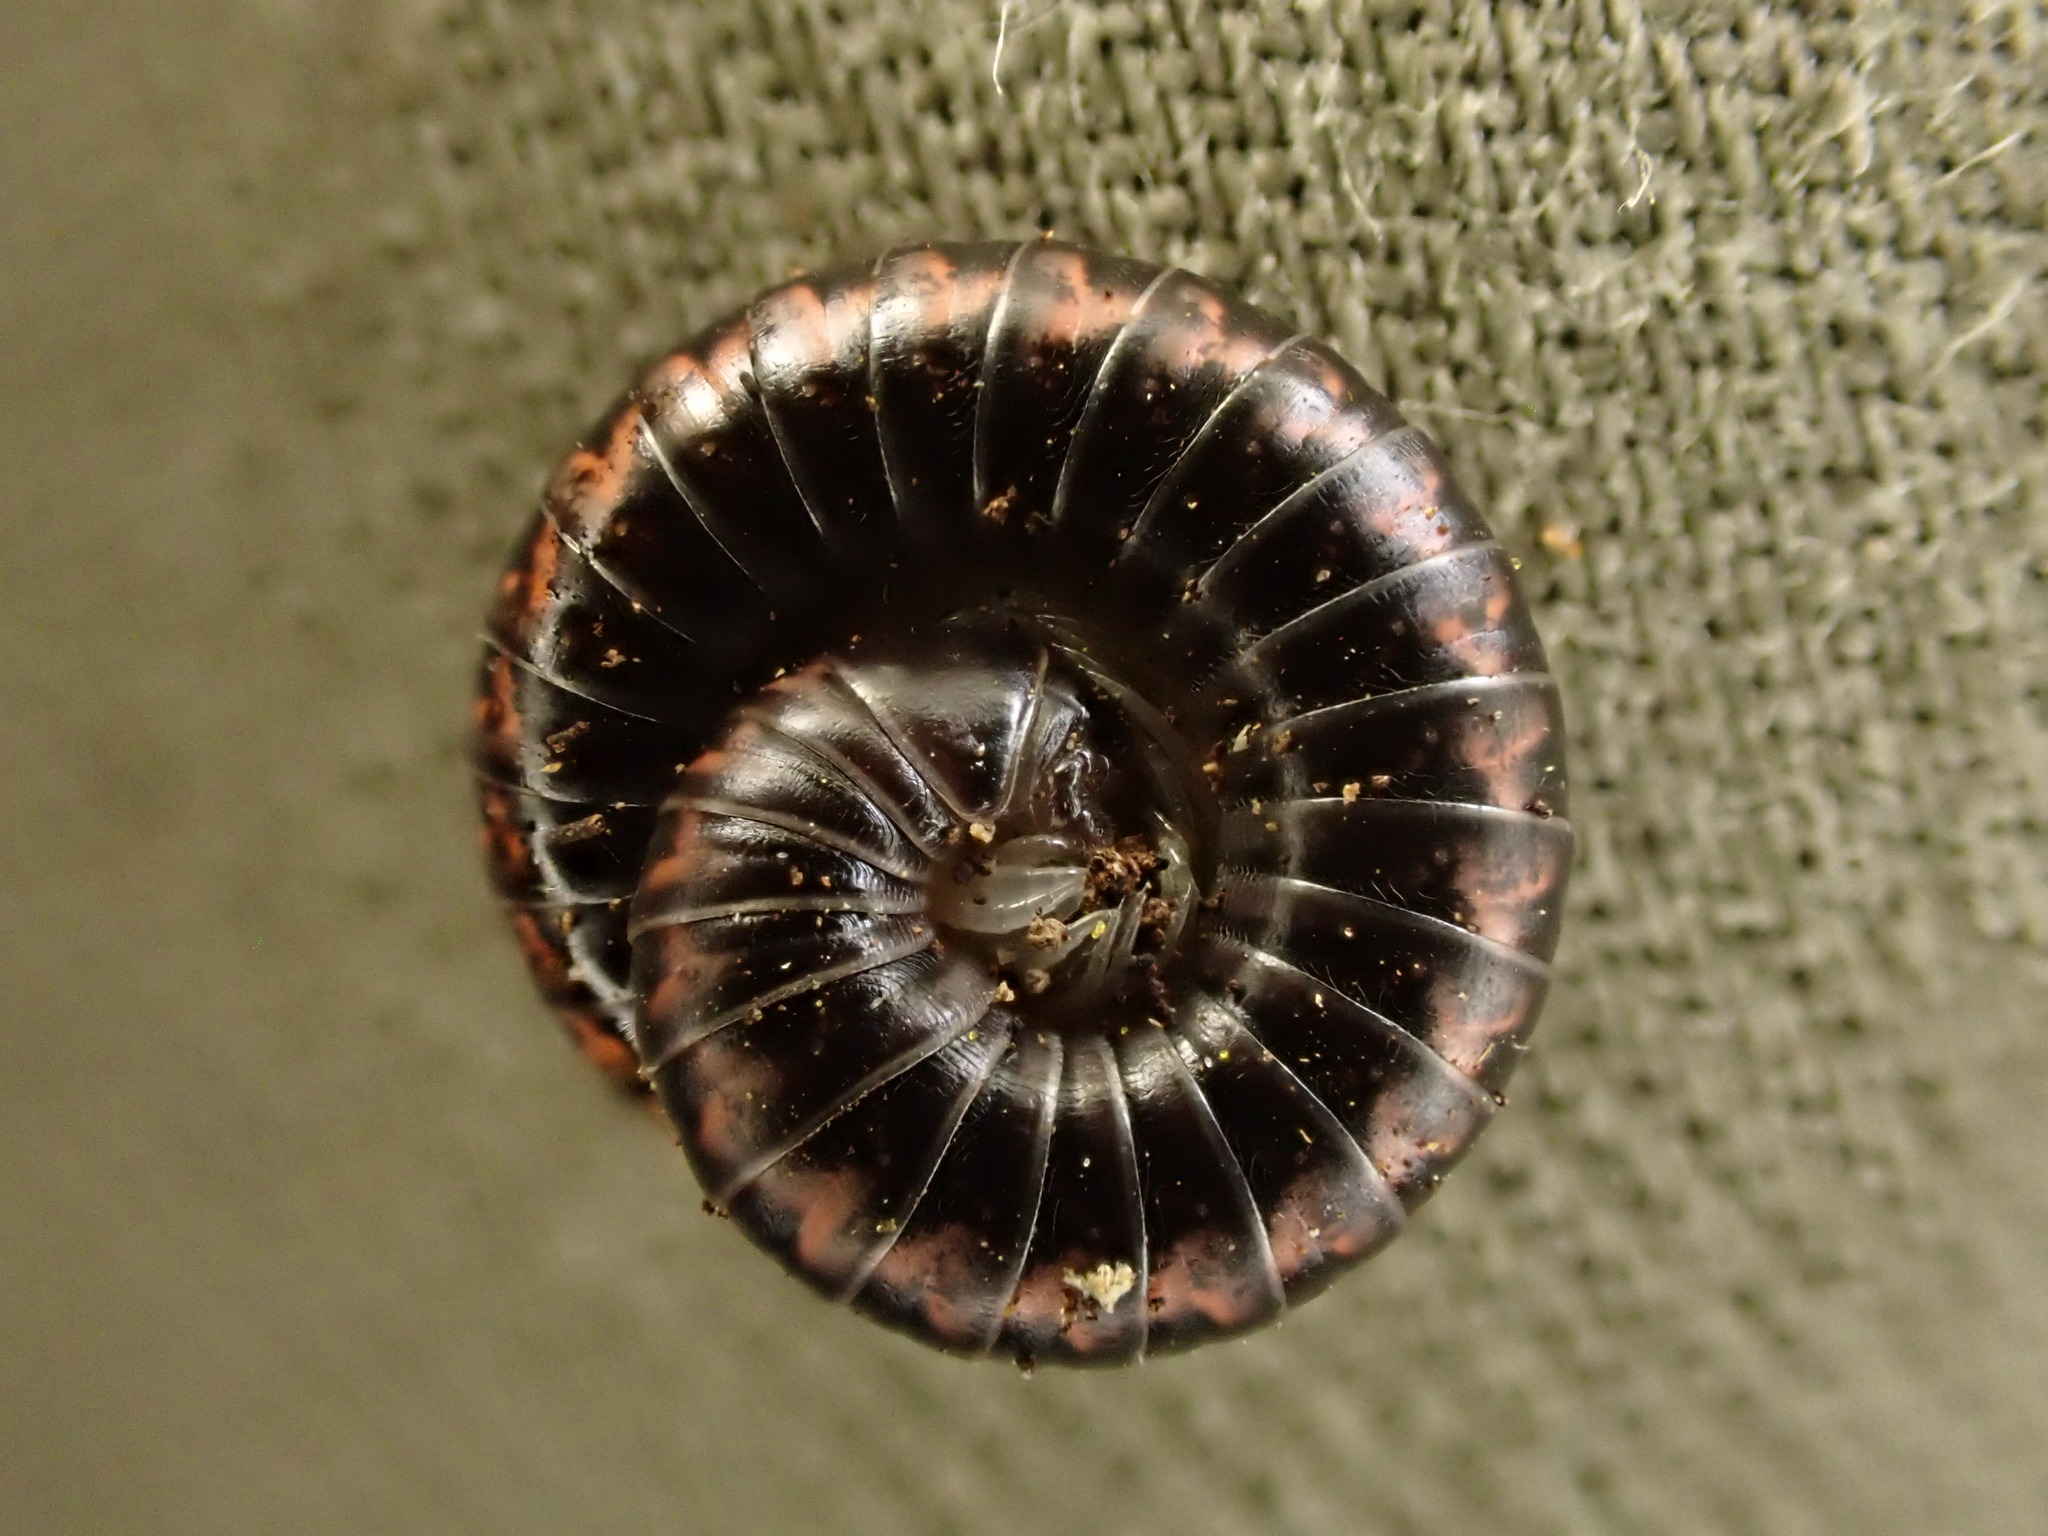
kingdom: Animalia
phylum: Arthropoda
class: Diplopoda
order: Spirobolida
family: Spirobolellidae
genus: Spirobolellus
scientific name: Spirobolellus antipodarum
